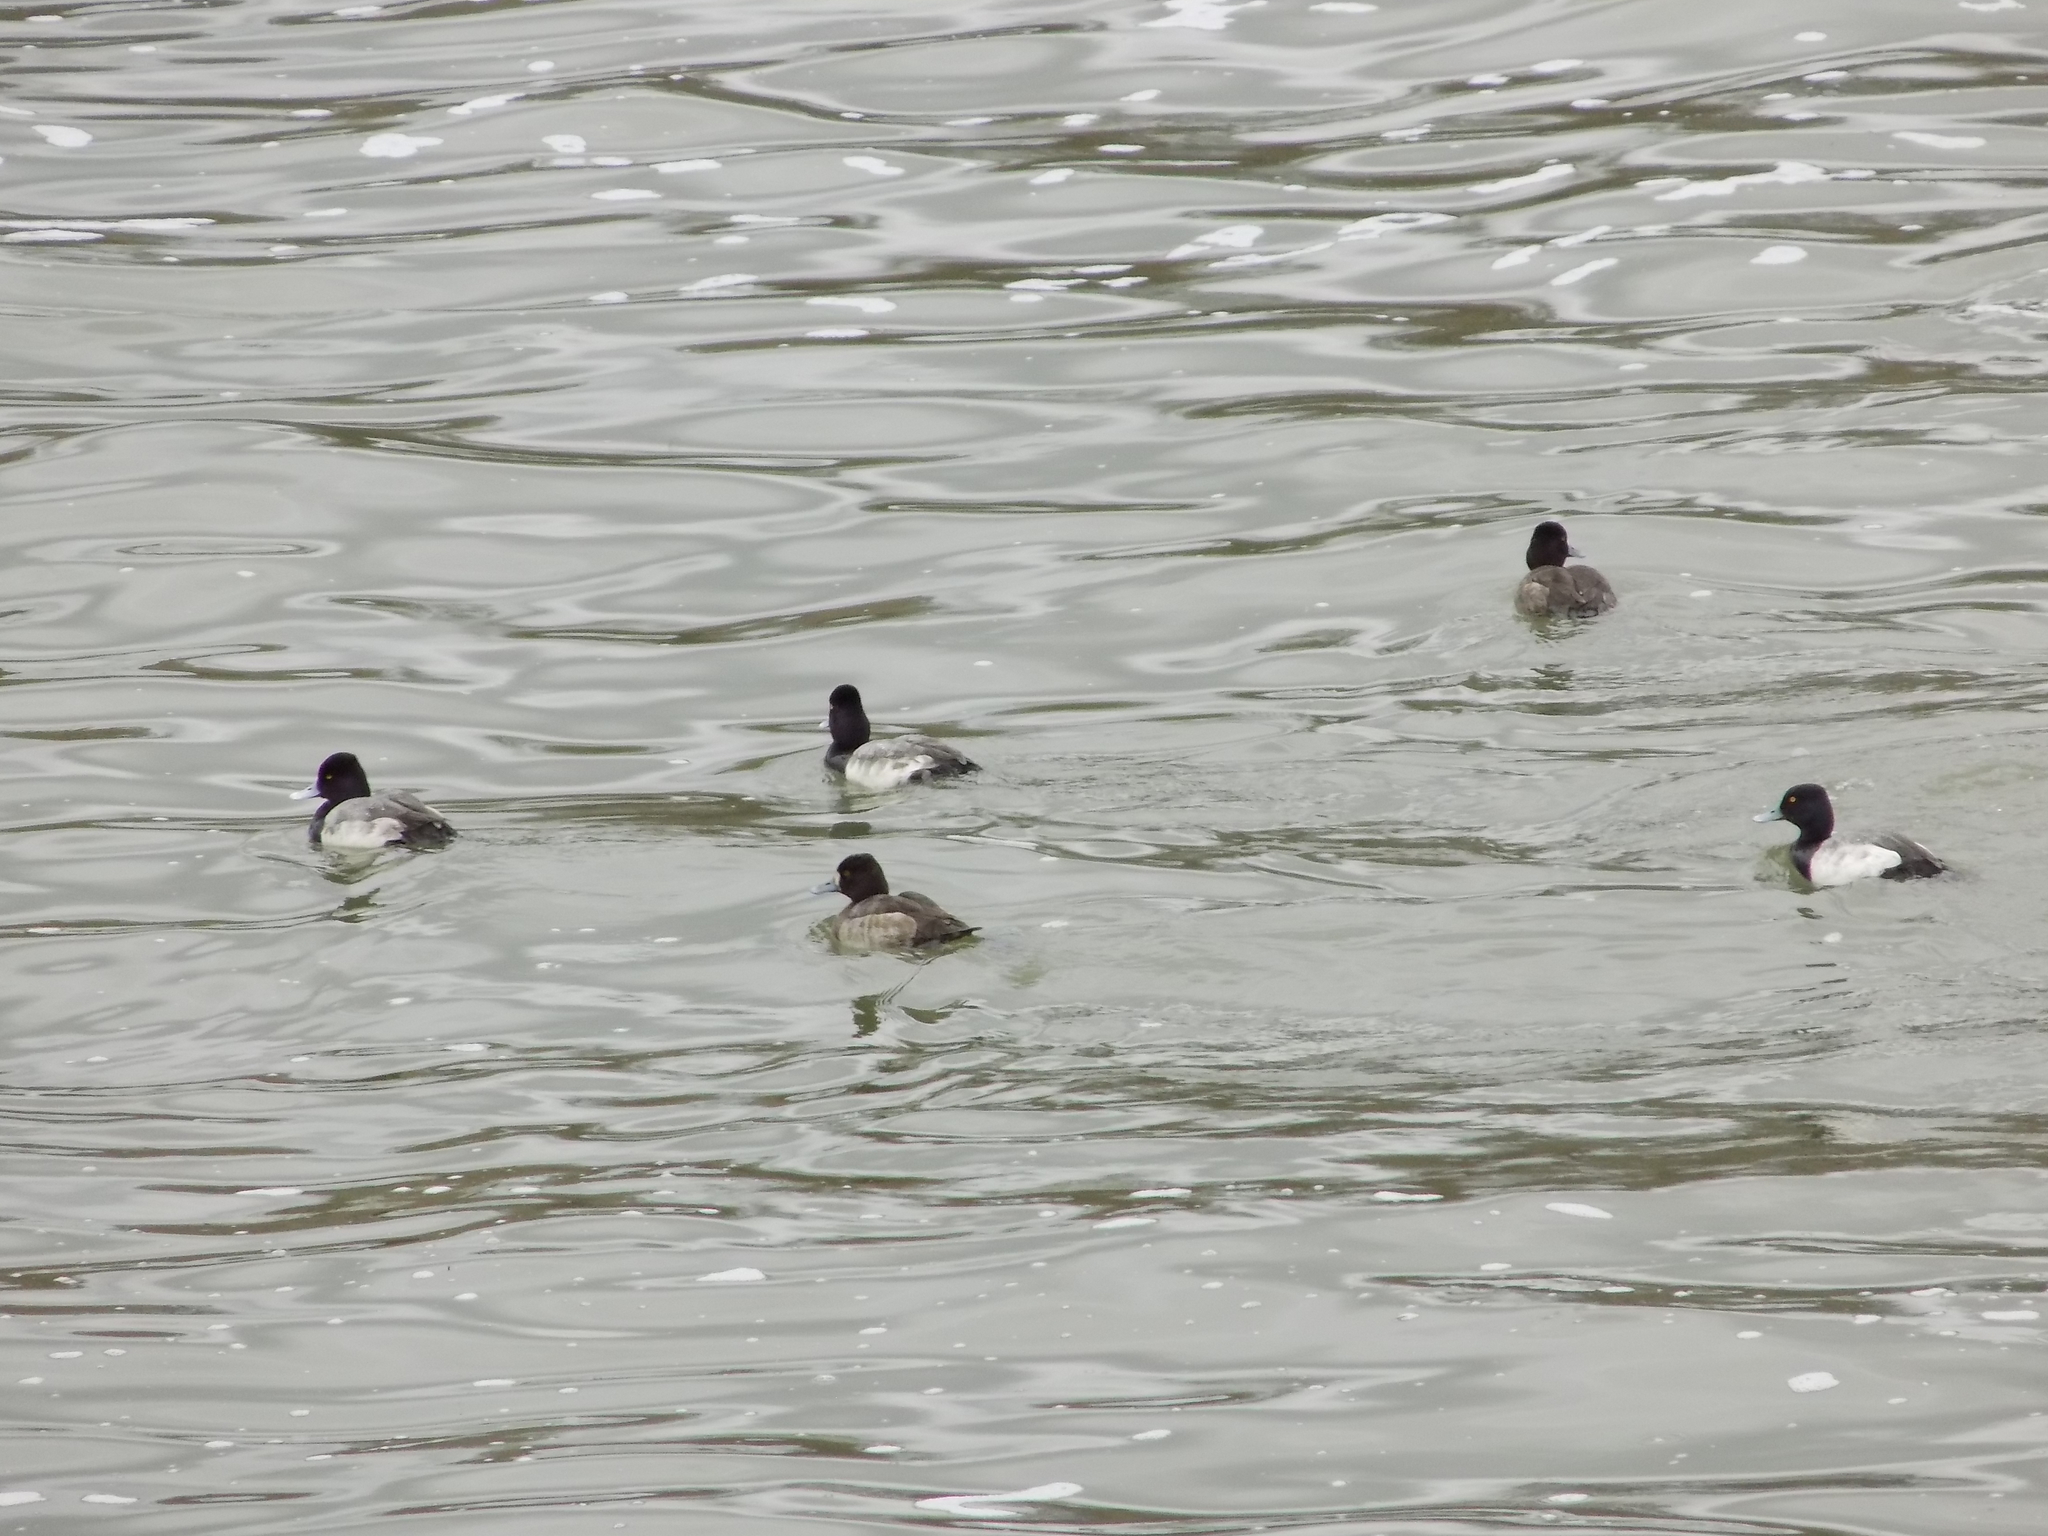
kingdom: Animalia
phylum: Chordata
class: Aves
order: Anseriformes
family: Anatidae
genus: Aythya
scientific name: Aythya affinis
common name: Lesser scaup
